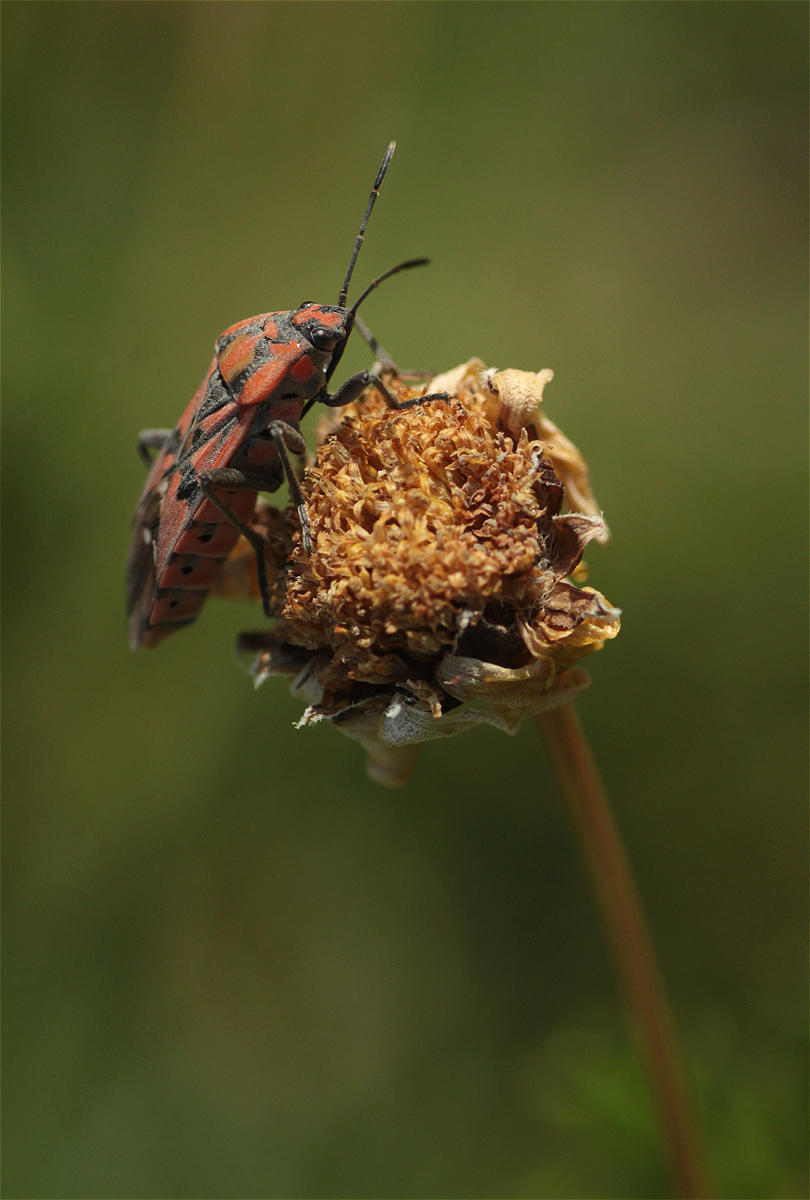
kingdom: Animalia
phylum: Arthropoda
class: Insecta
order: Hemiptera
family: Lygaeidae
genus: Spilostethus
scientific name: Spilostethus pandurus
